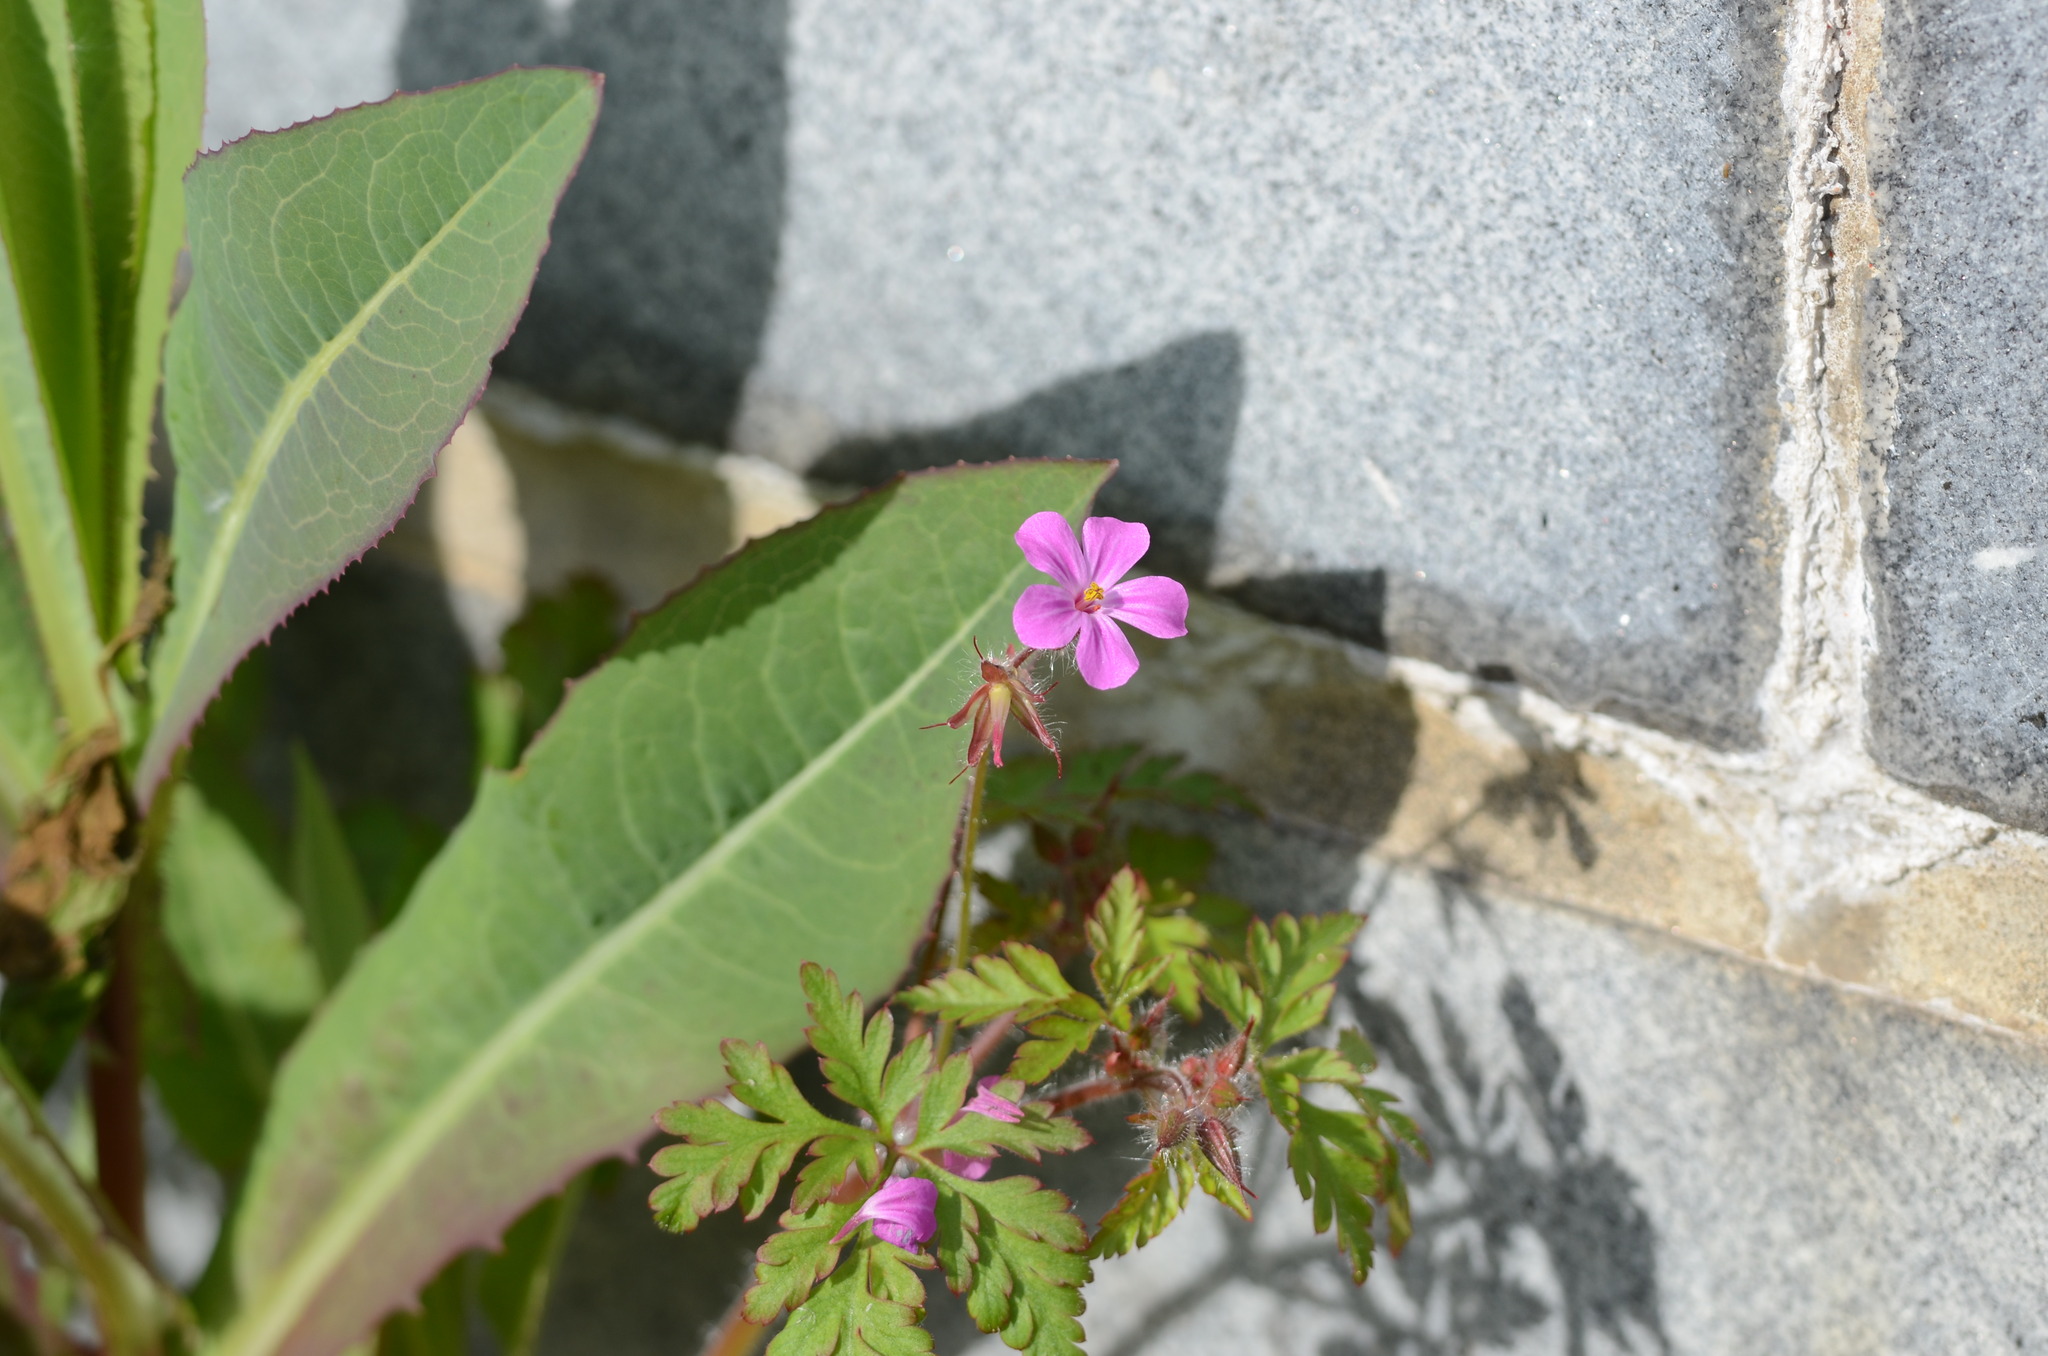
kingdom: Plantae
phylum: Tracheophyta
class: Magnoliopsida
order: Geraniales
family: Geraniaceae
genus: Geranium
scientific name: Geranium robertianum
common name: Herb-robert
